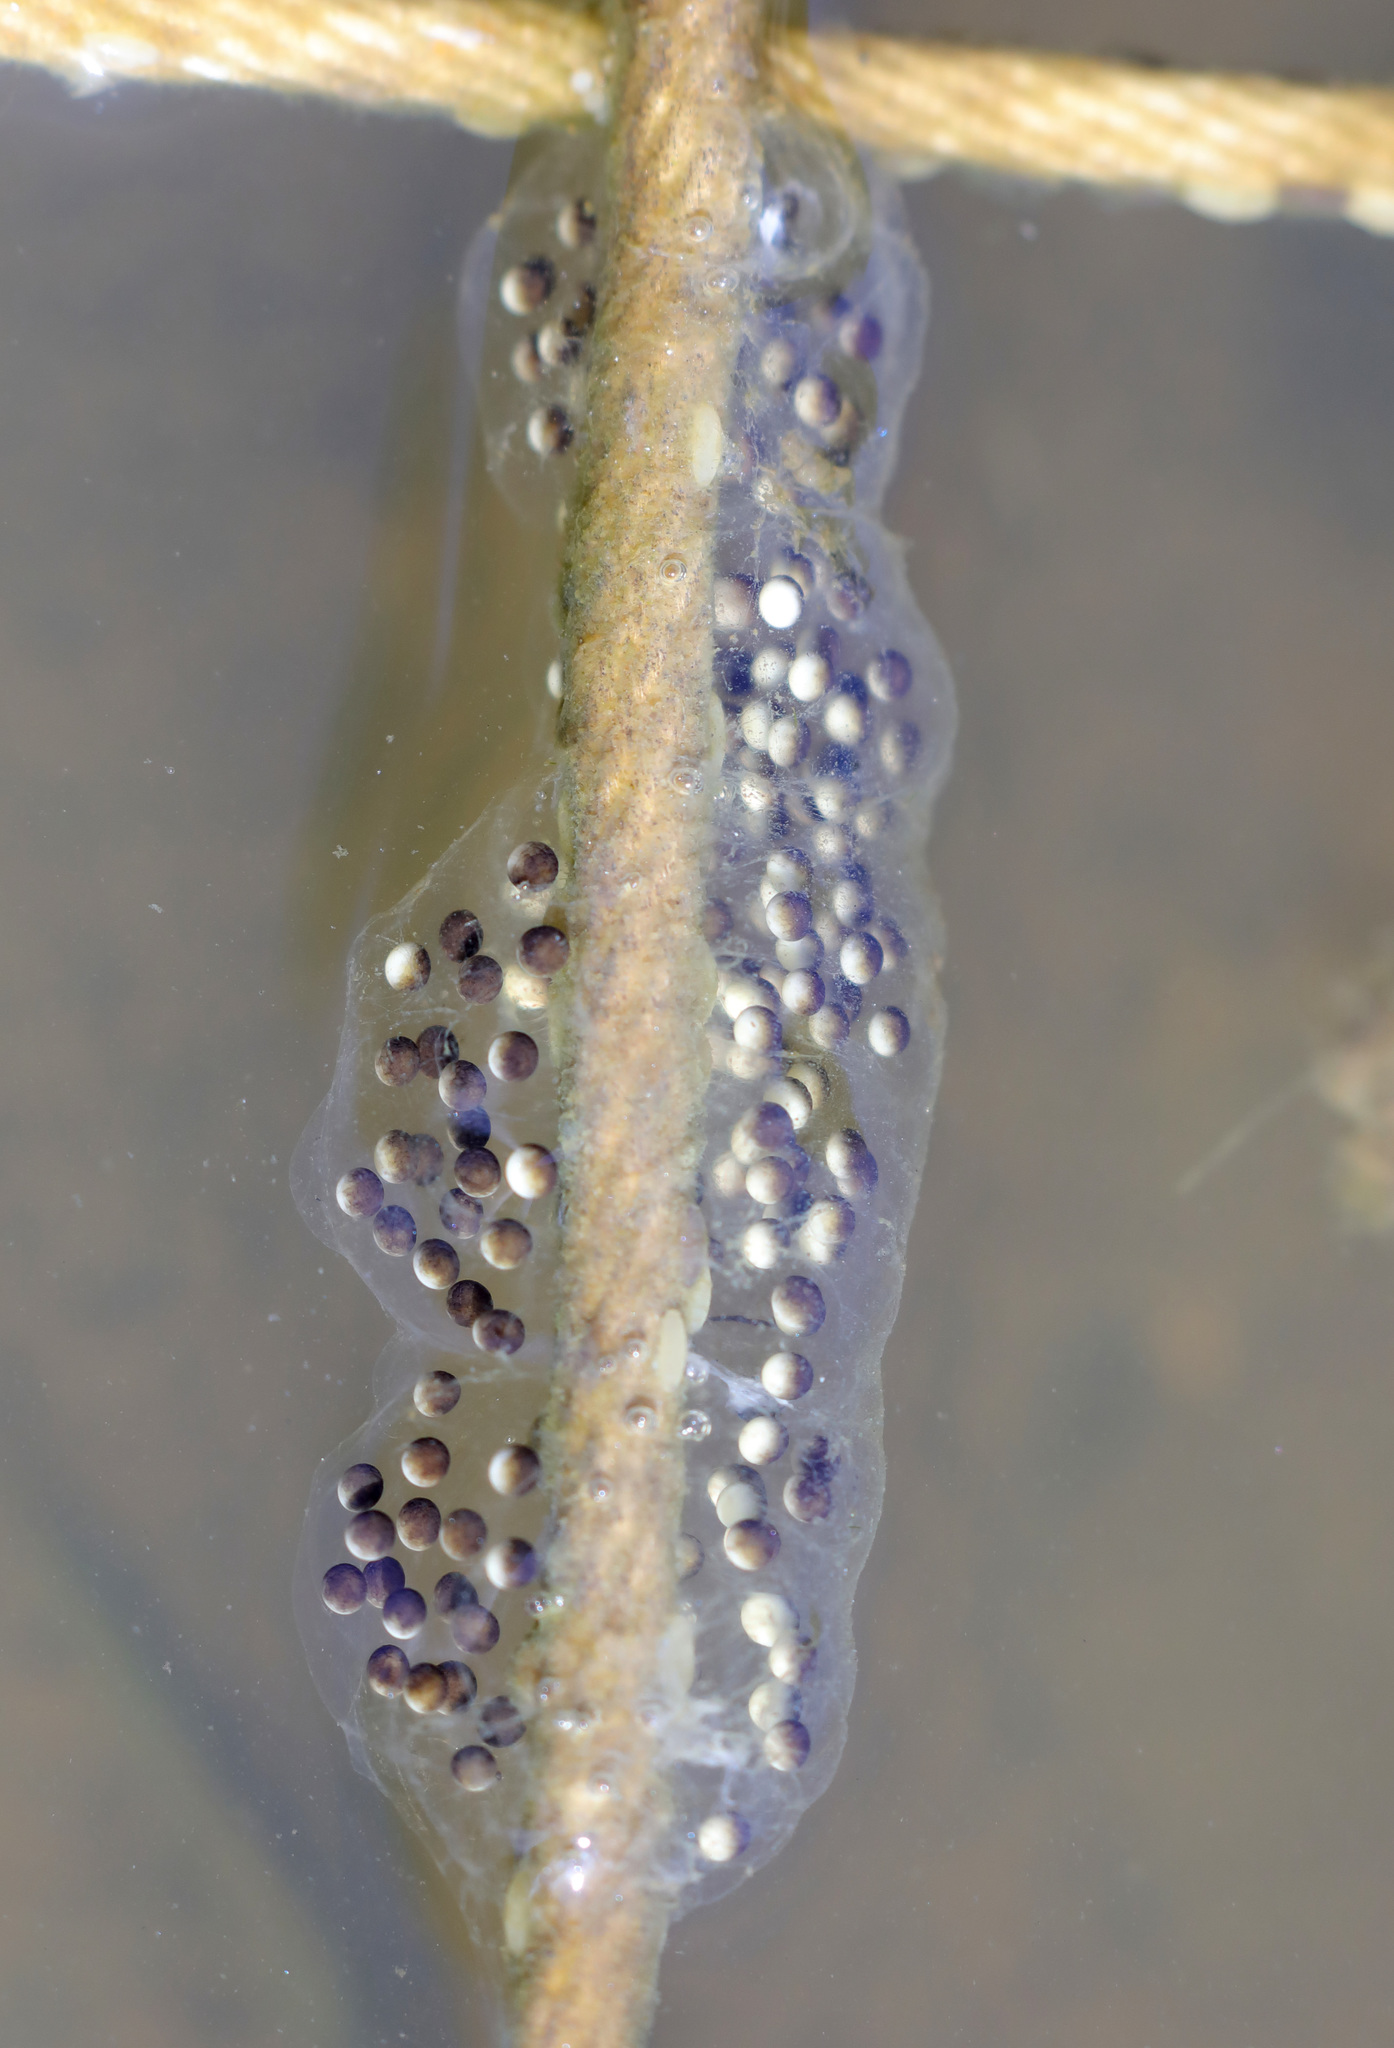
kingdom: Animalia
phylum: Chordata
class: Amphibia
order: Anura
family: Hylidae
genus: Pseudacris
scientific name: Pseudacris regilla
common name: Pacific chorus frog
